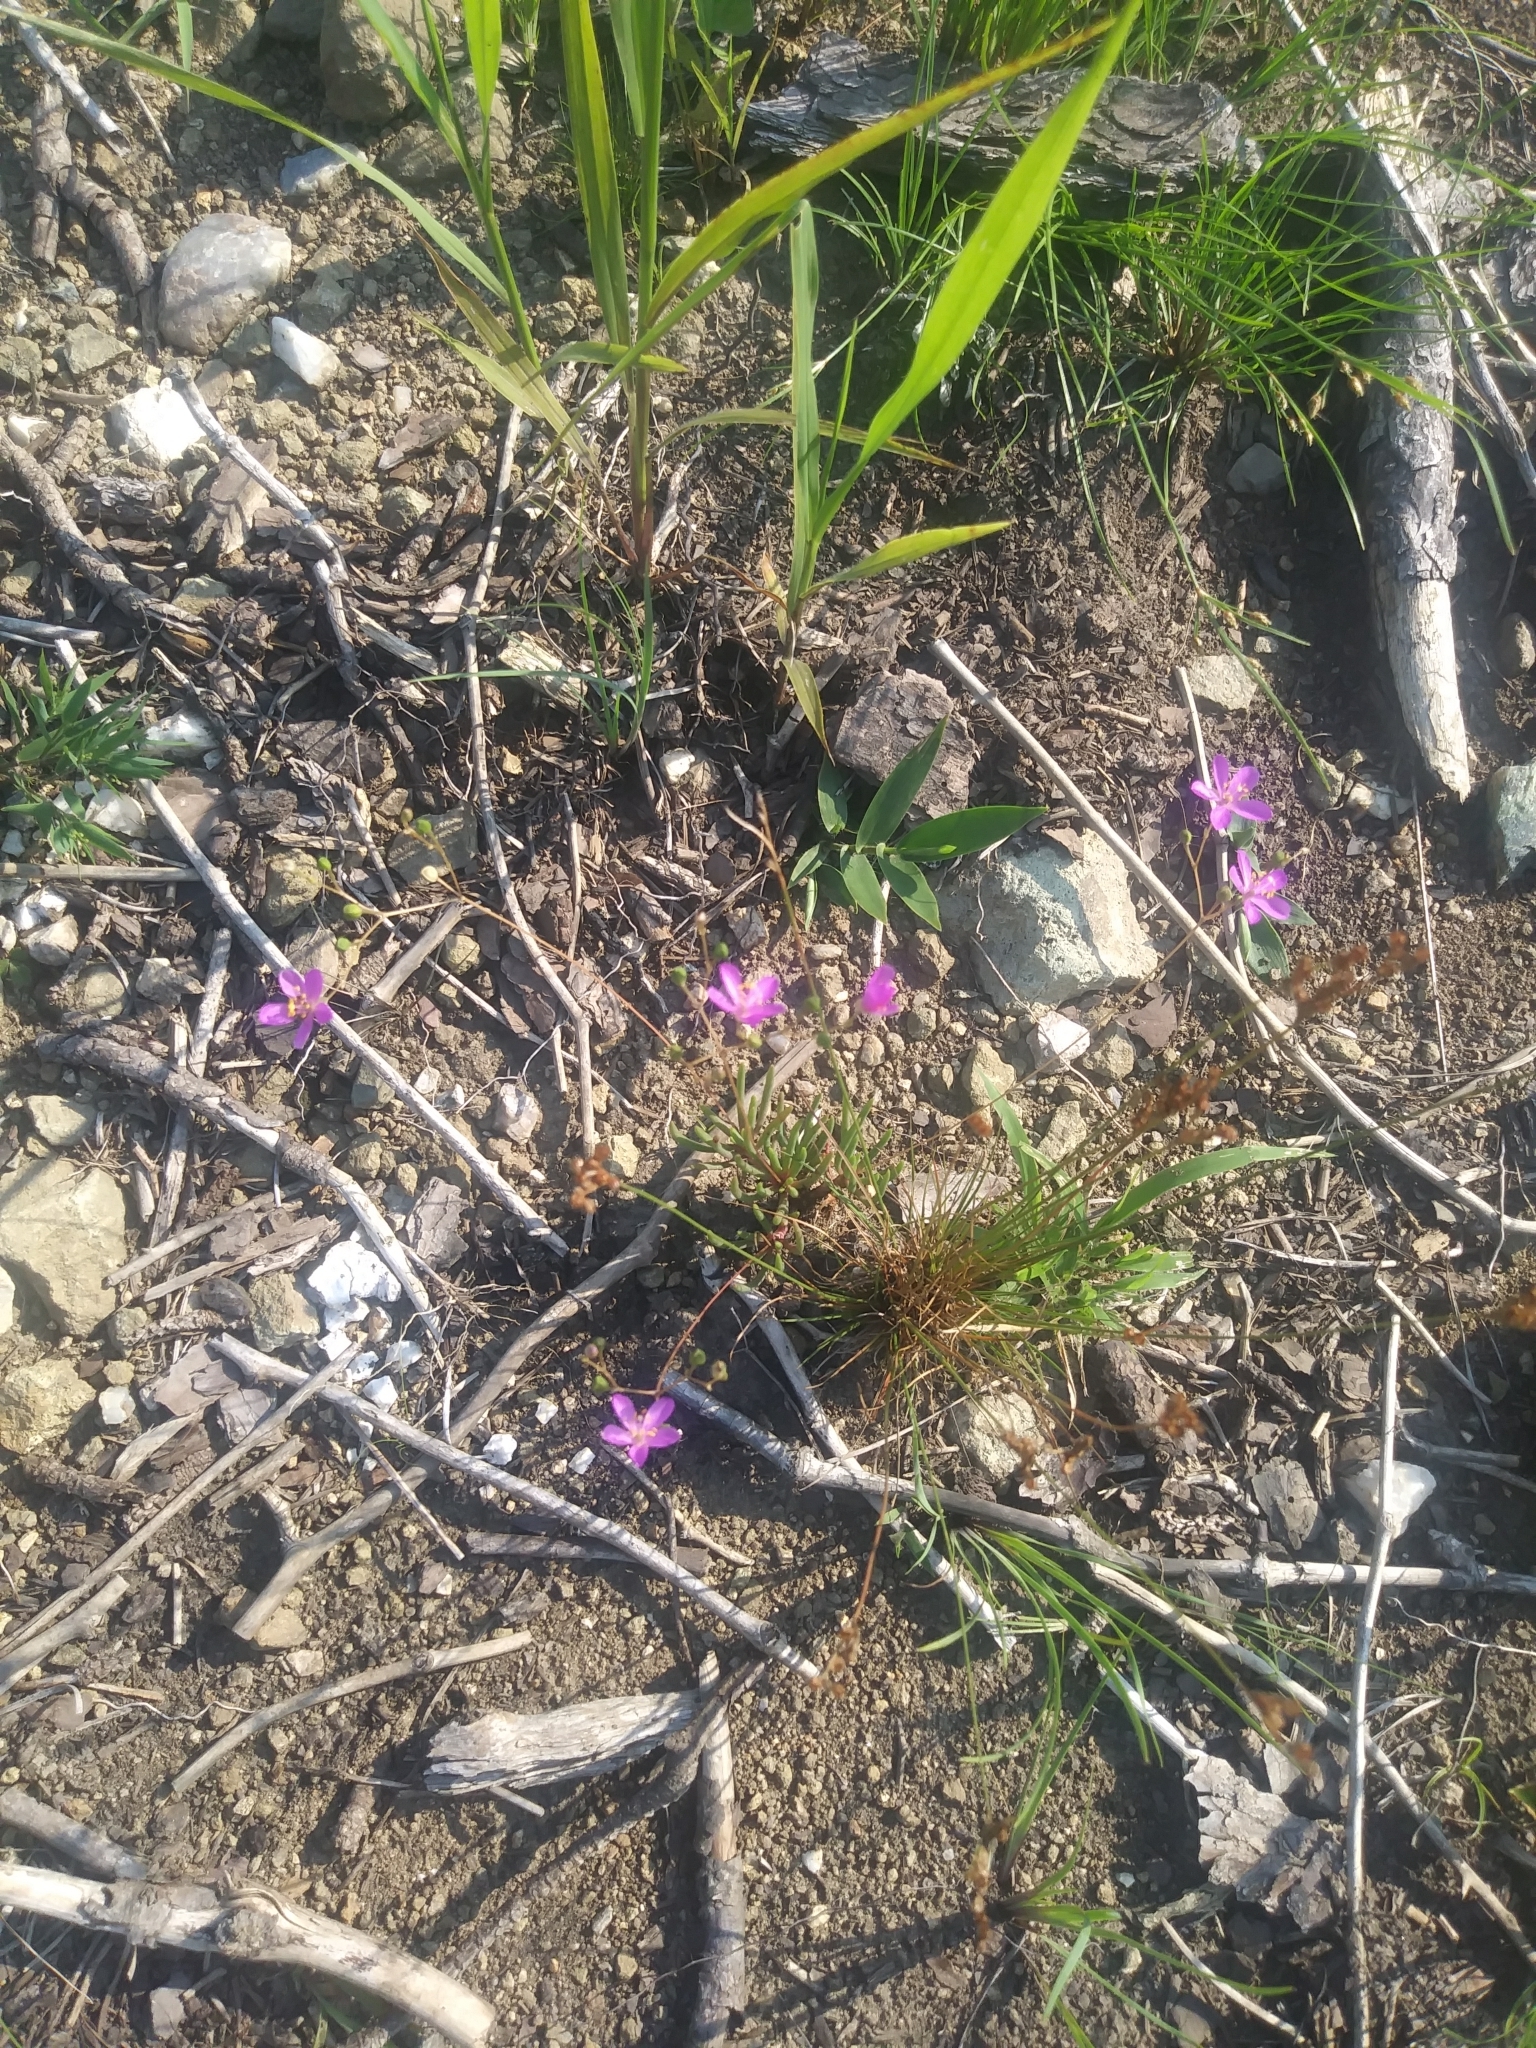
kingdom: Plantae
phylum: Tracheophyta
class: Magnoliopsida
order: Caryophyllales
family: Montiaceae
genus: Phemeranthus
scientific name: Phemeranthus teretifolius
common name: Quill fameflower
